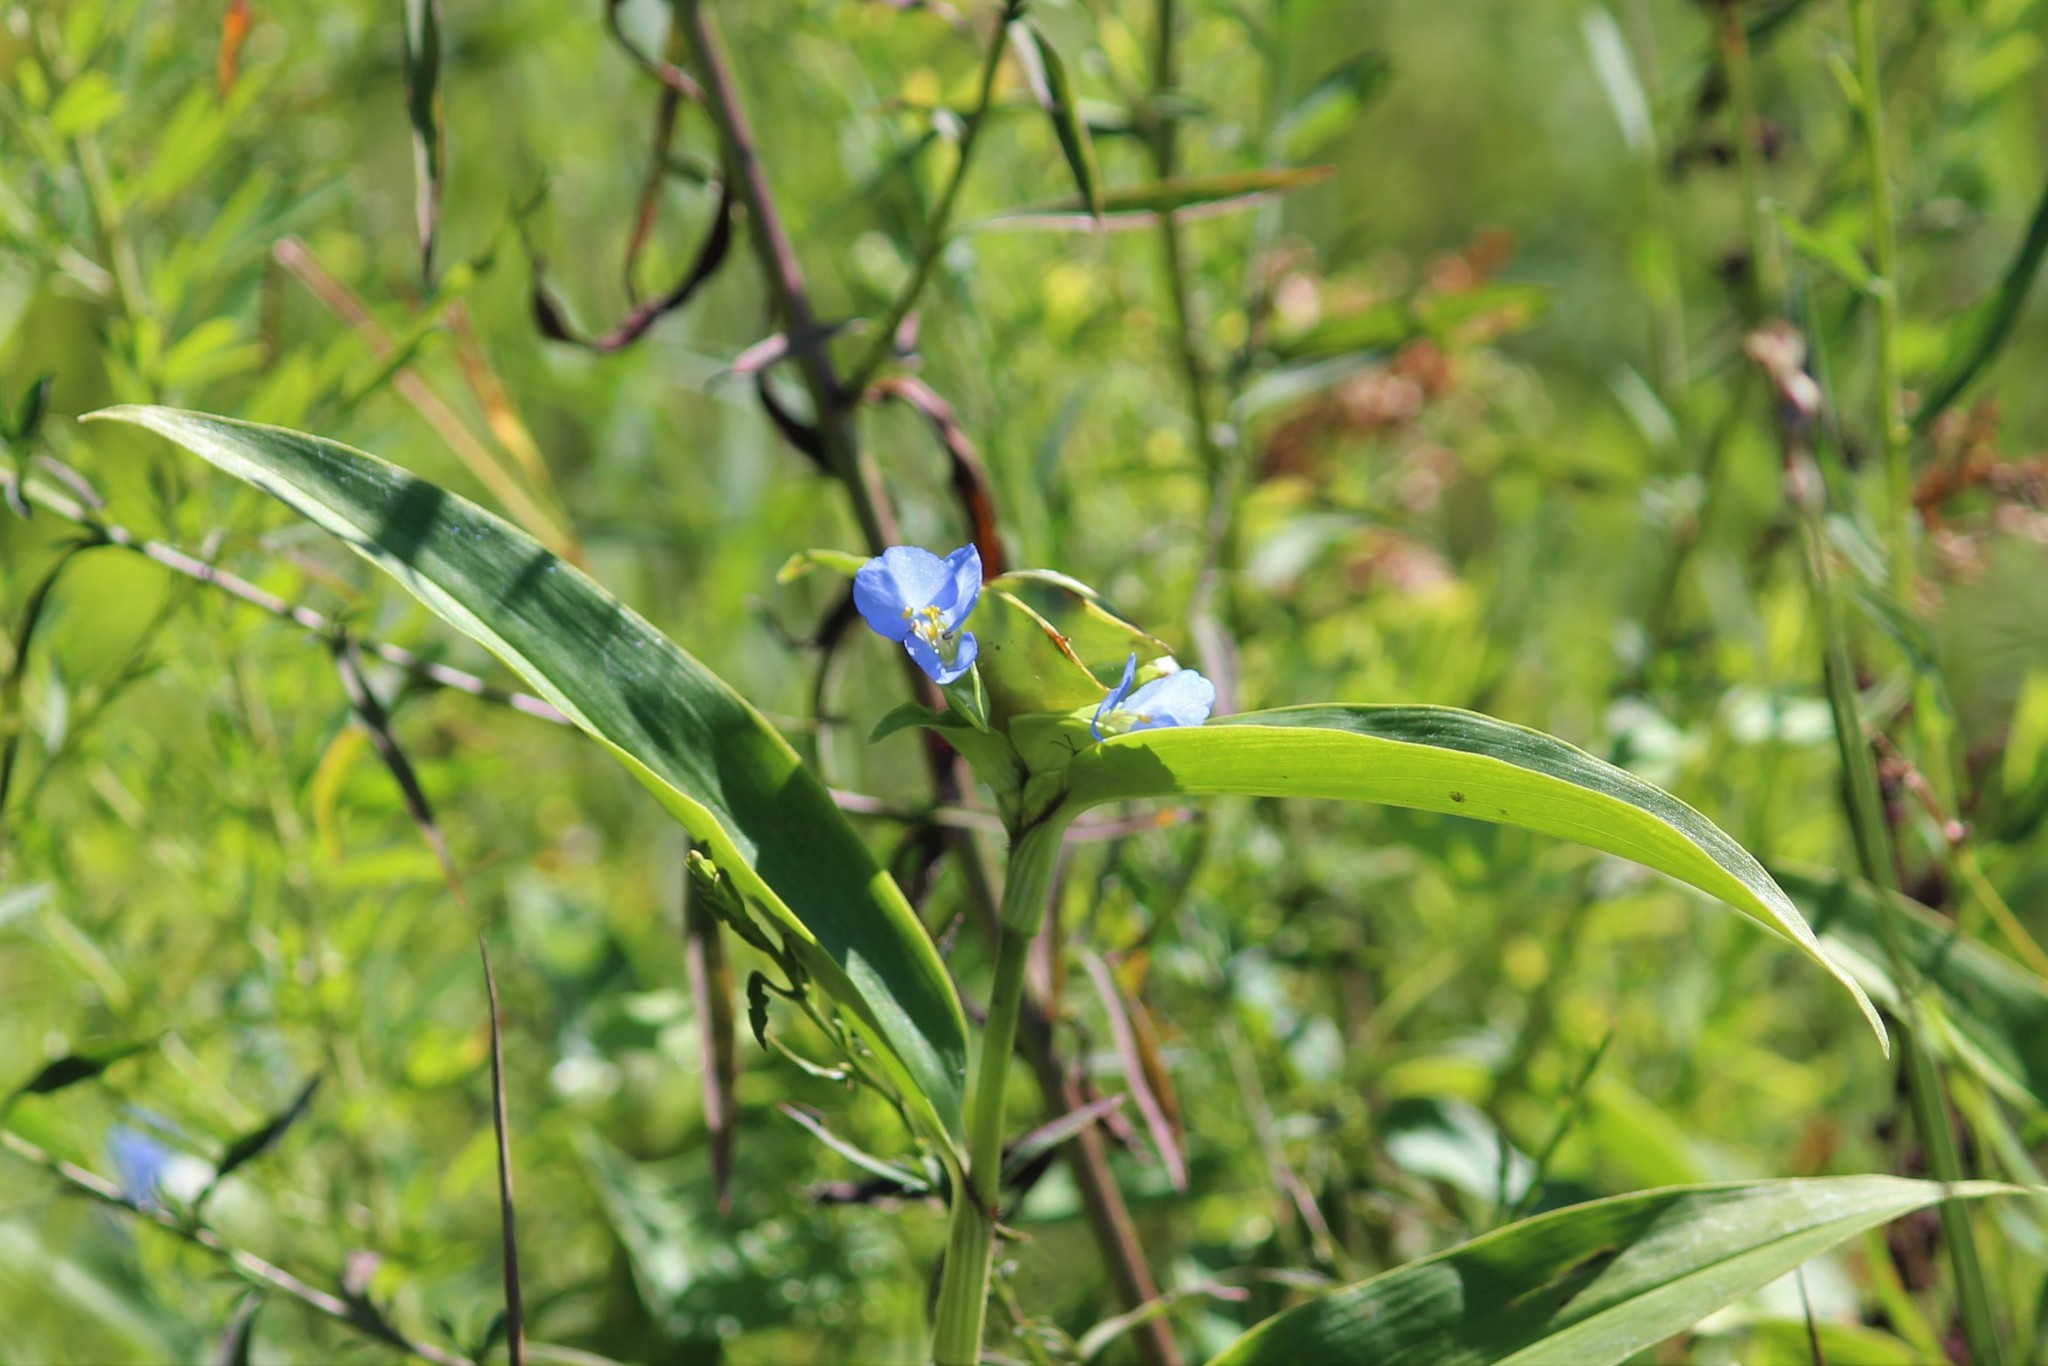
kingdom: Plantae
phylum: Tracheophyta
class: Liliopsida
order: Commelinales
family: Commelinaceae
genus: Commelina
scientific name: Commelina virginica
